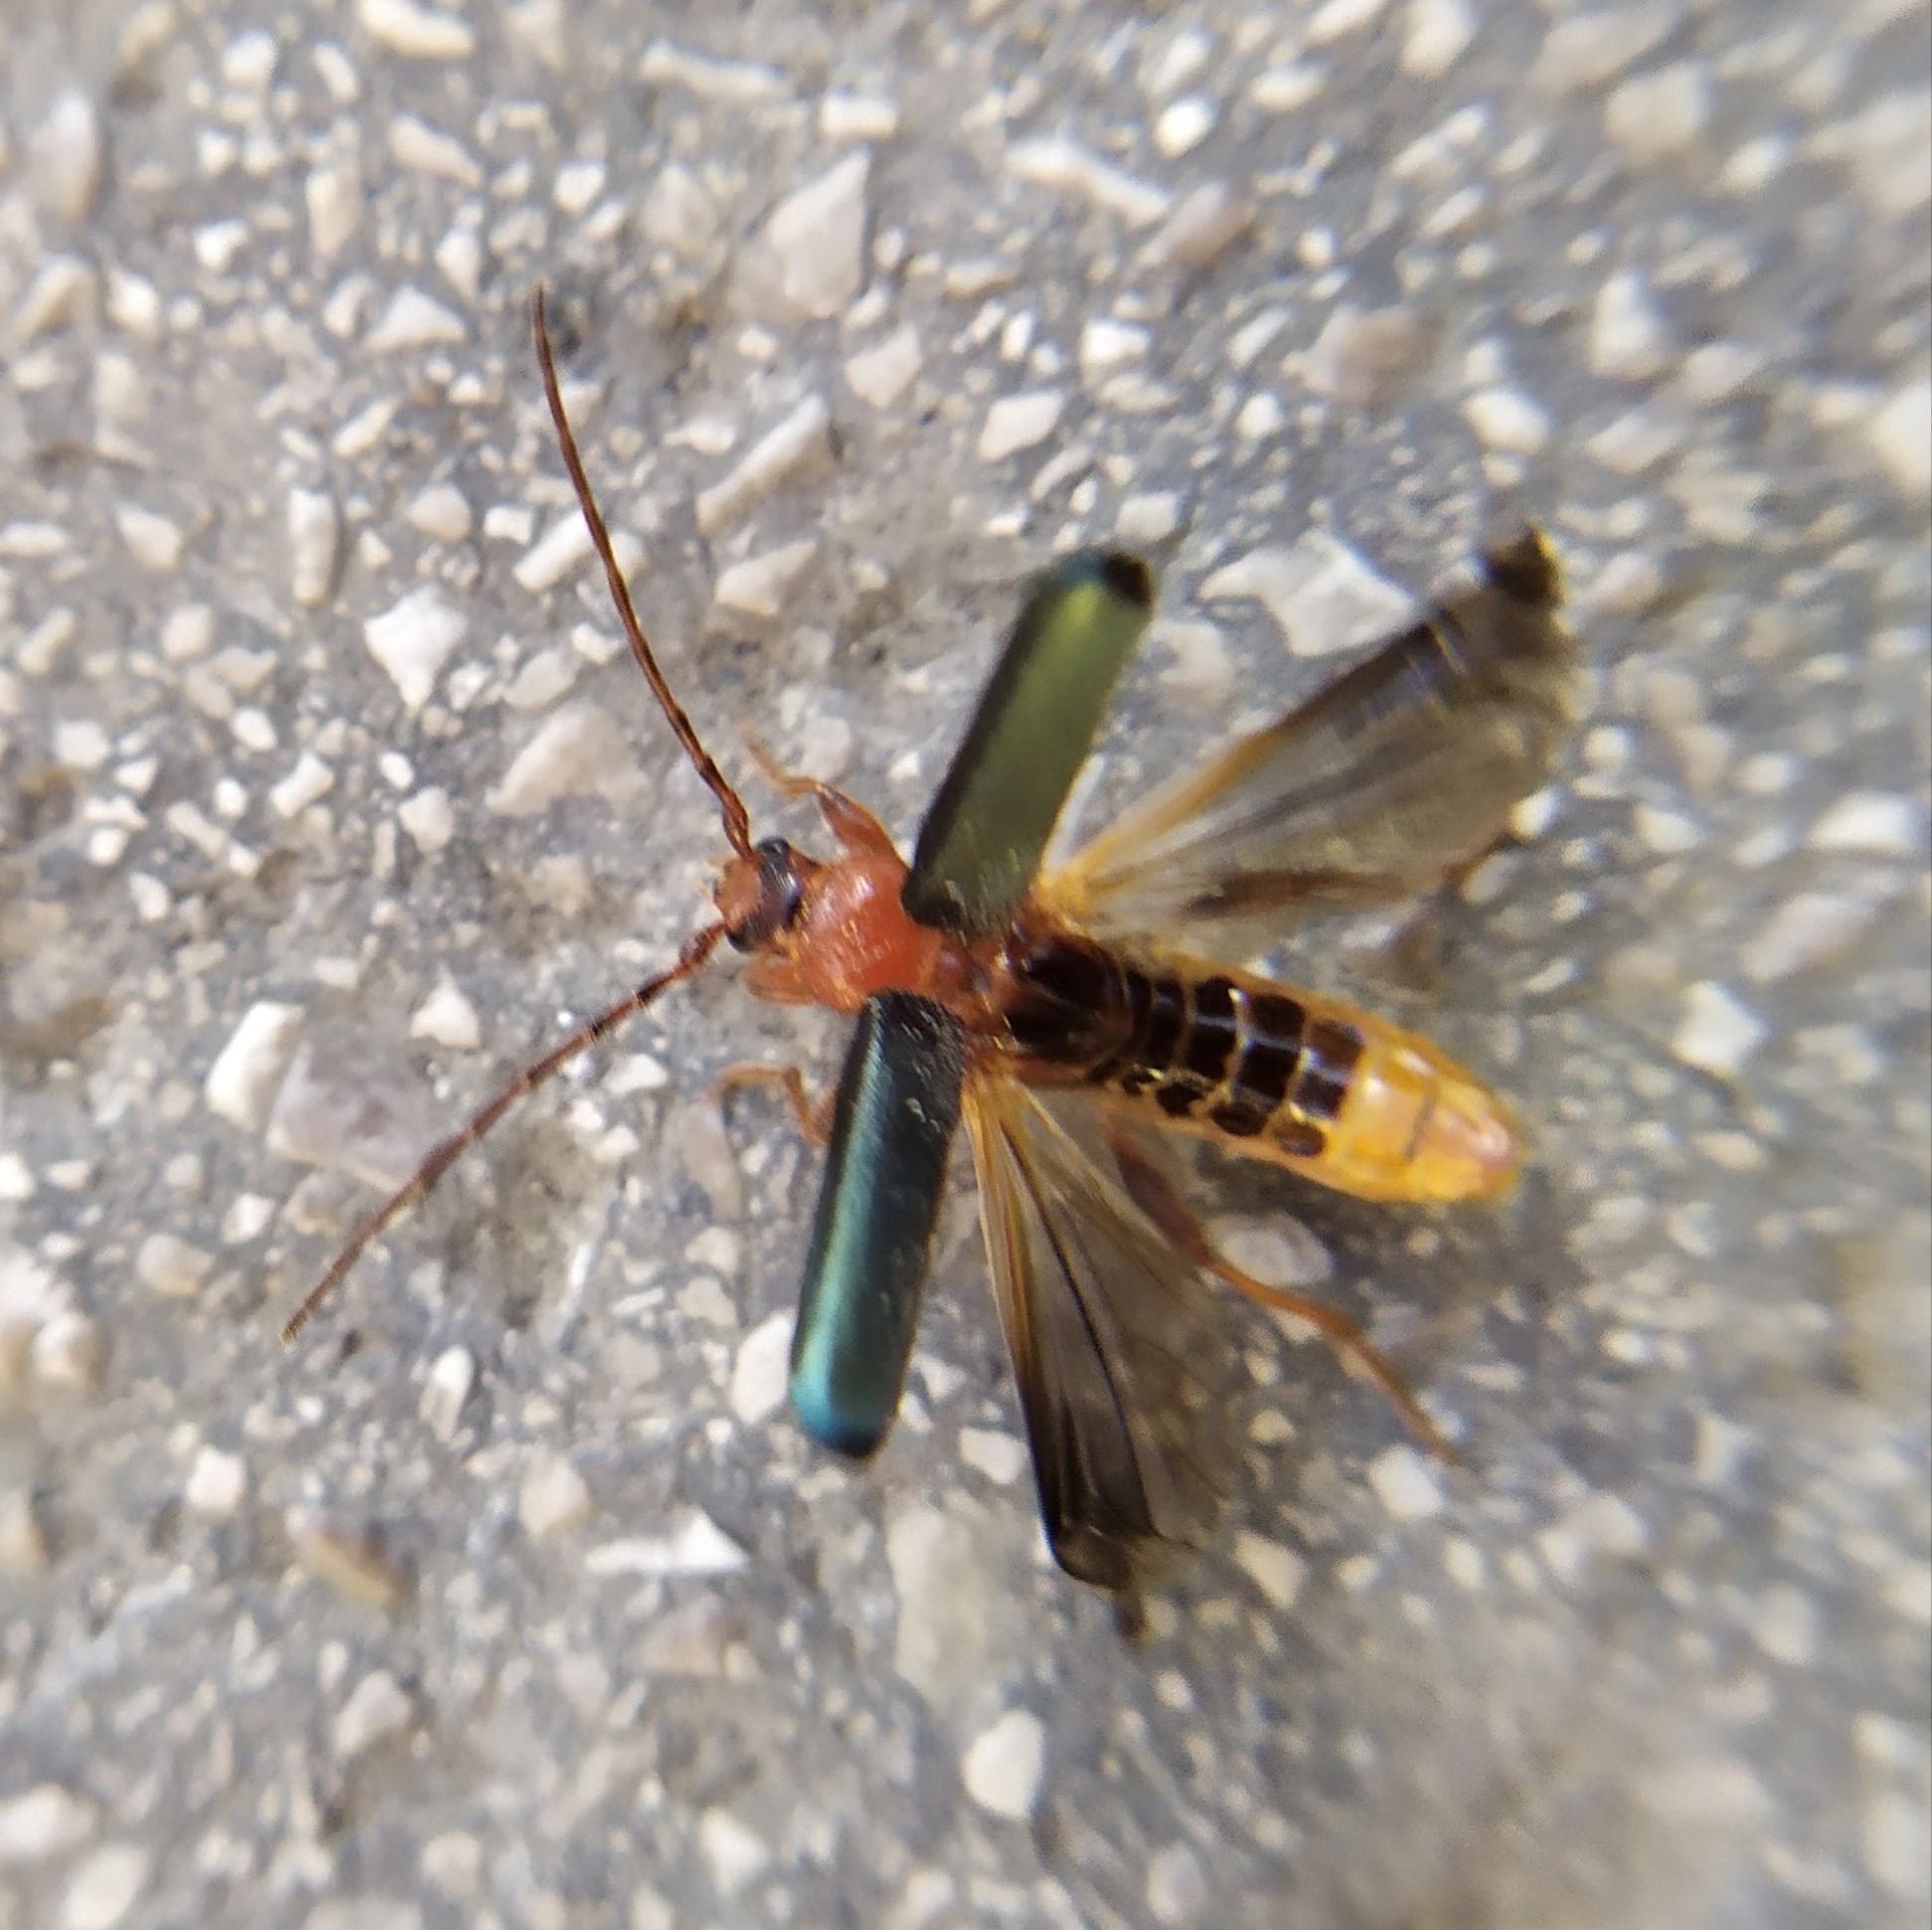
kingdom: Animalia
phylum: Arthropoda
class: Insecta
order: Coleoptera
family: Cerambycidae
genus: Phymatodes
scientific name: Phymatodes testaceus
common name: Long-horned beetle
